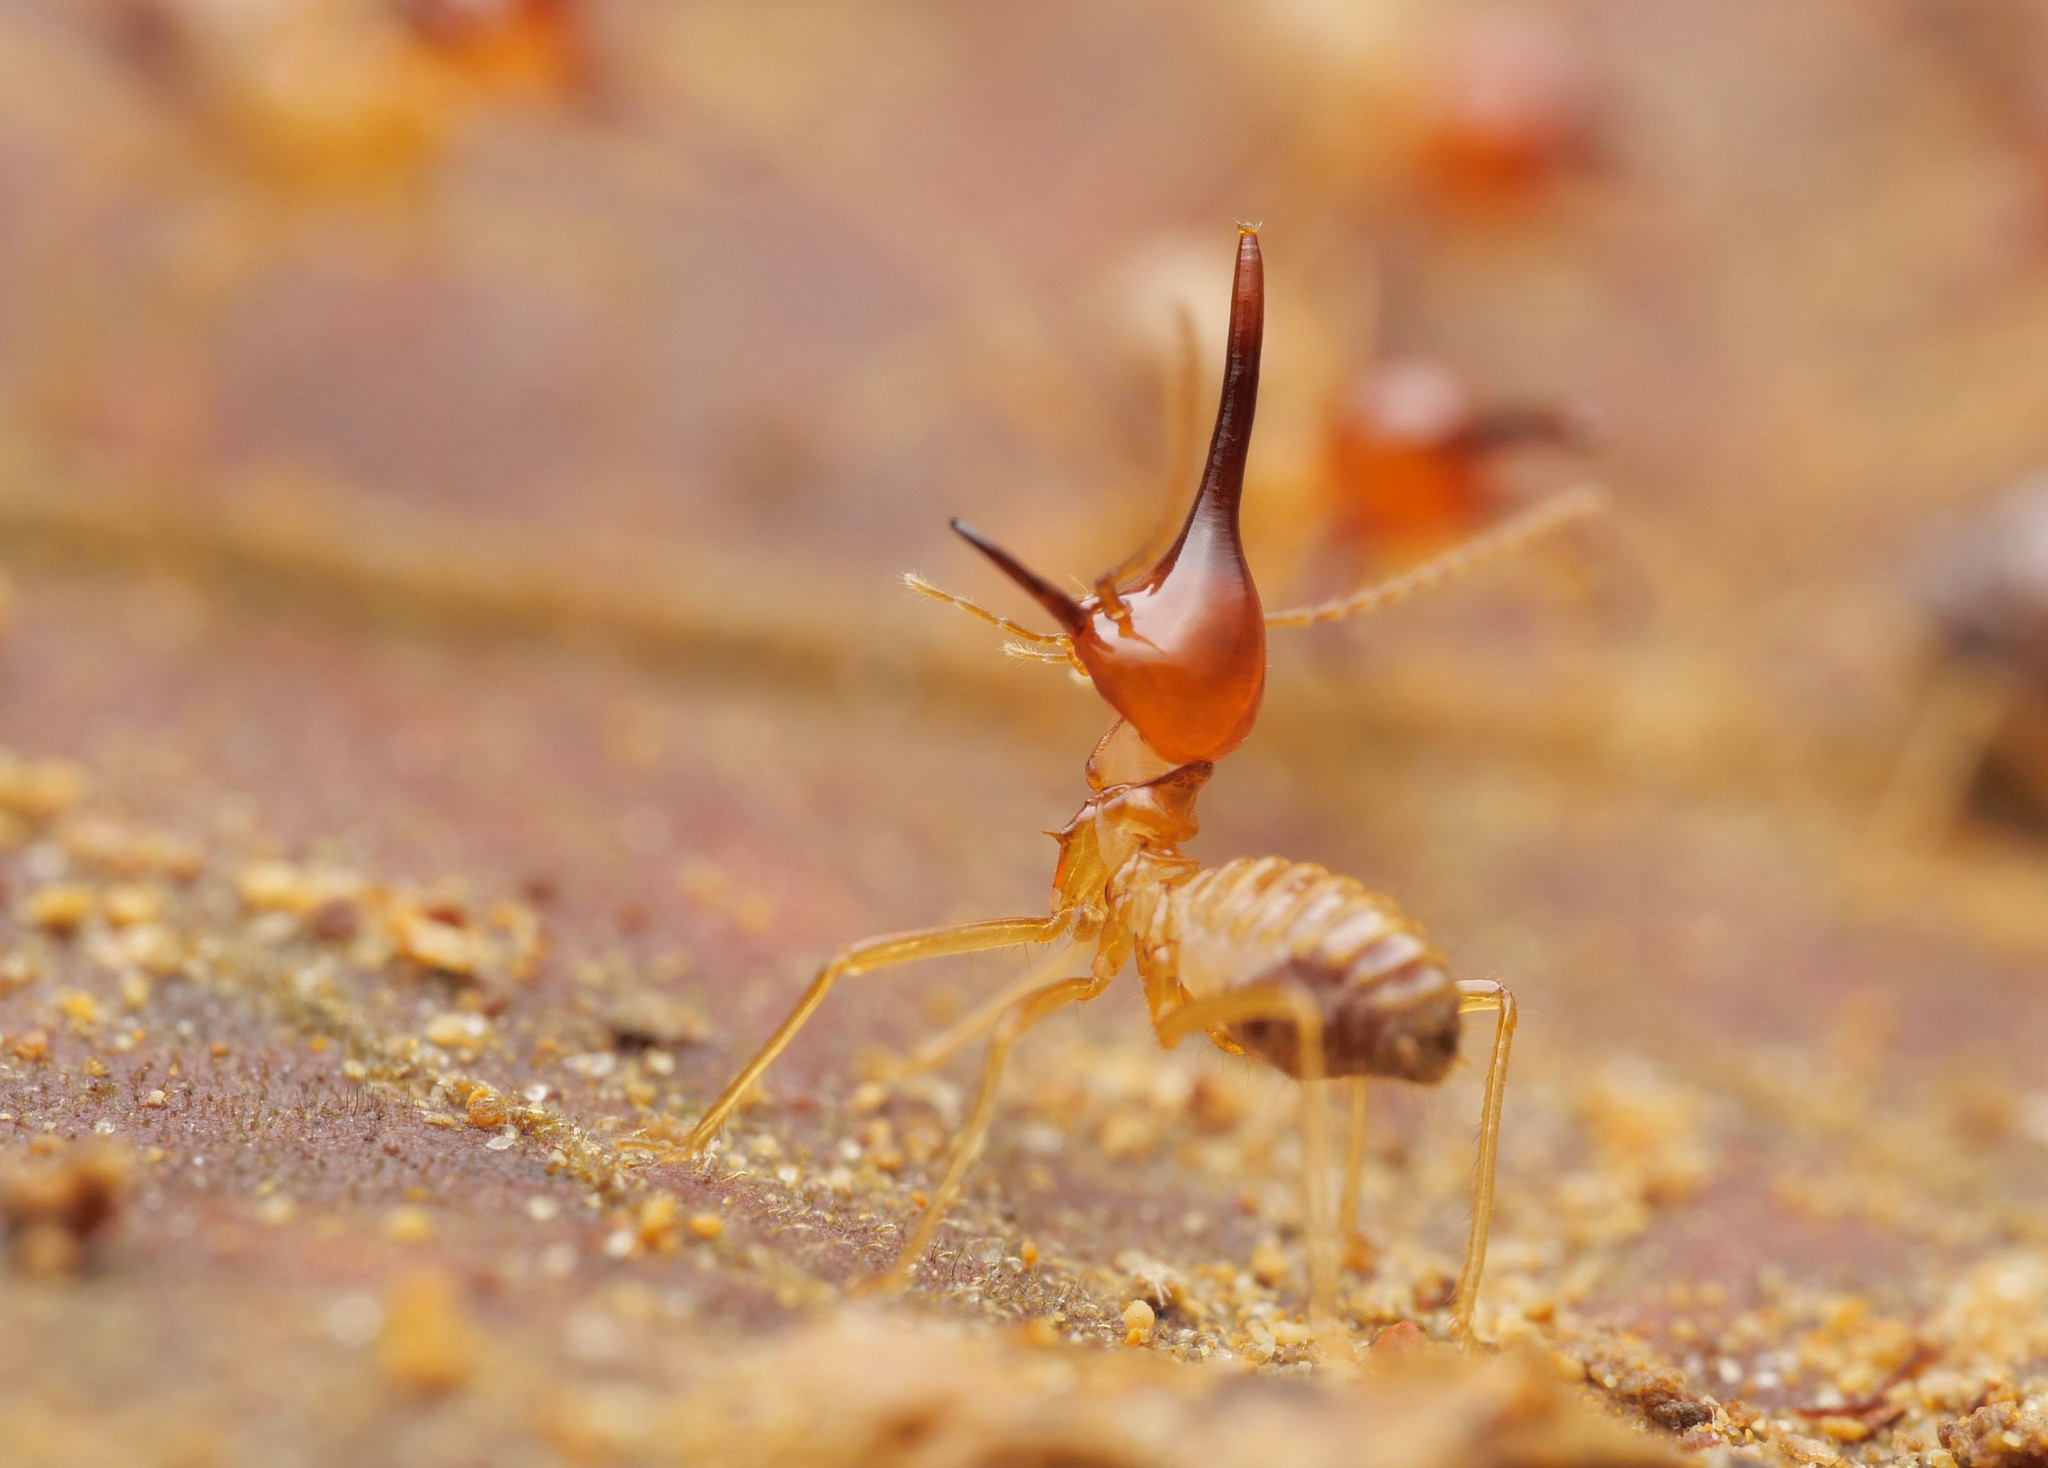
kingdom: Animalia
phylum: Arthropoda
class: Insecta
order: Blattodea
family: Termitidae
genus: Rhynchotermes
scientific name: Rhynchotermes perarmatus
